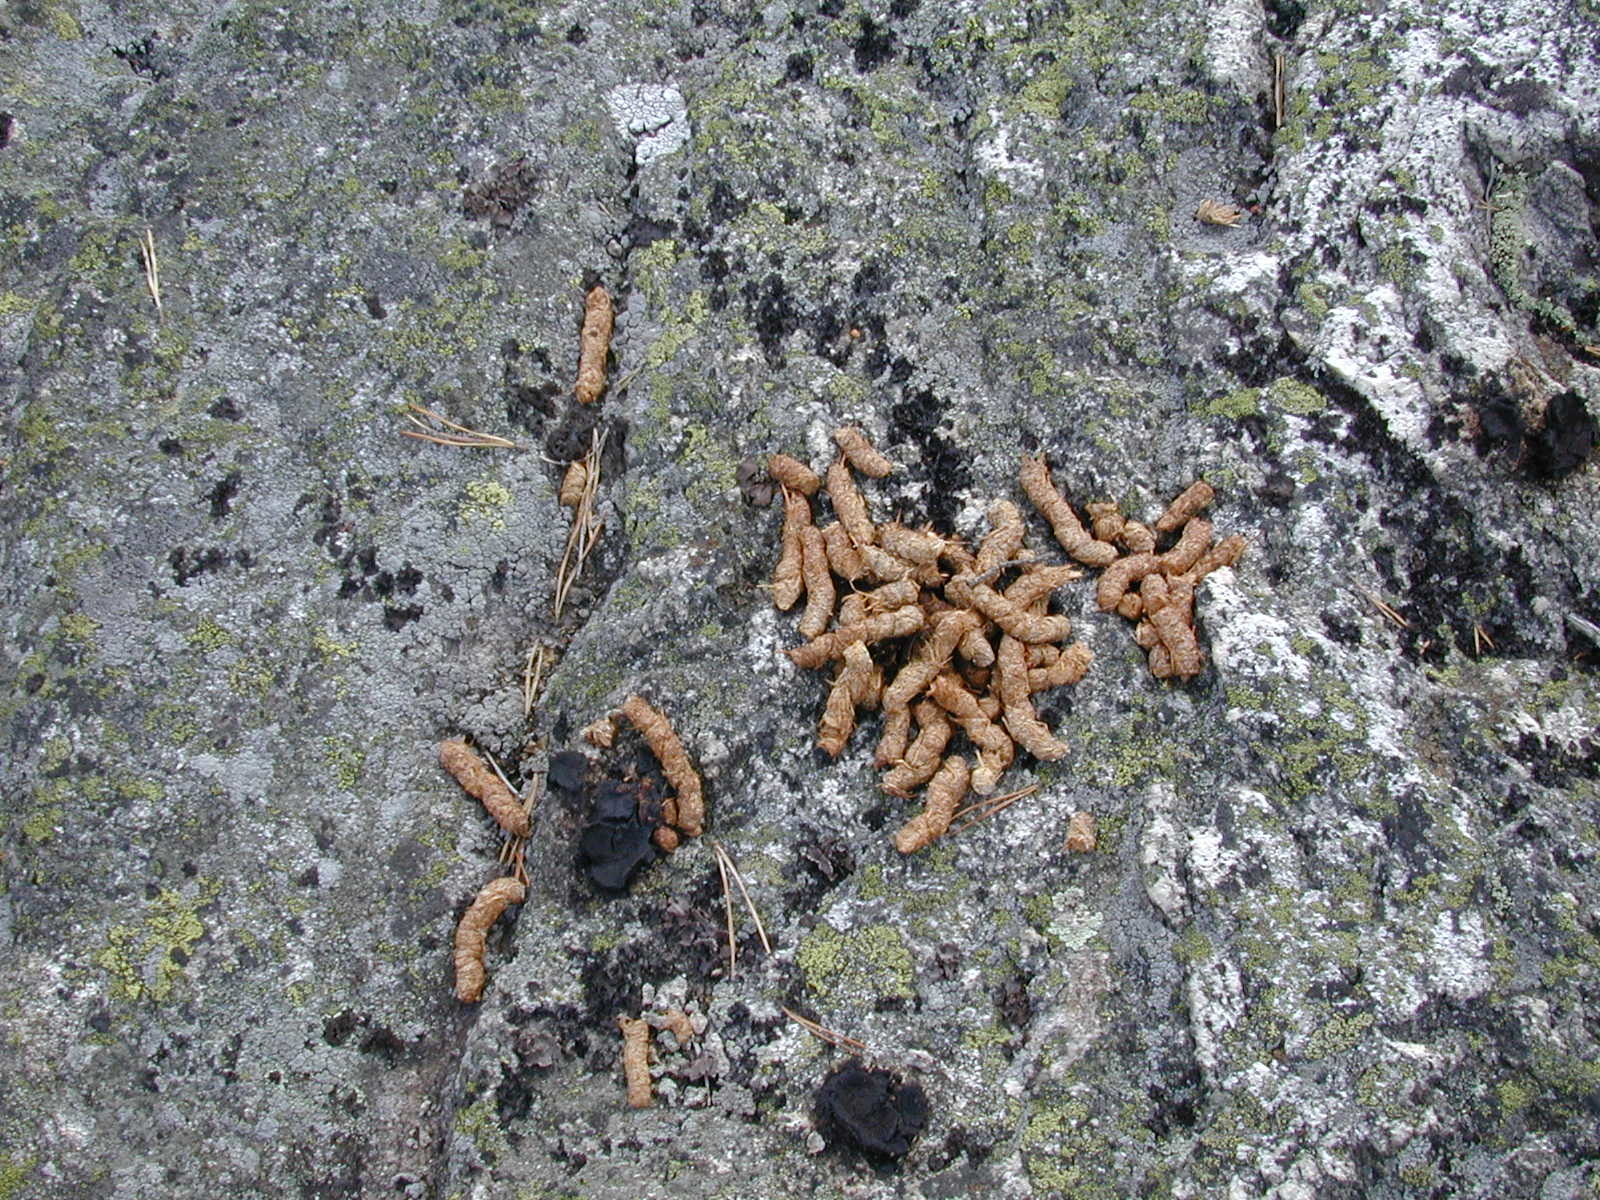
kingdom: Animalia
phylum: Chordata
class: Aves
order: Galliformes
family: Phasianidae
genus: Lyrurus
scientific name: Lyrurus tetrix
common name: Black grouse
